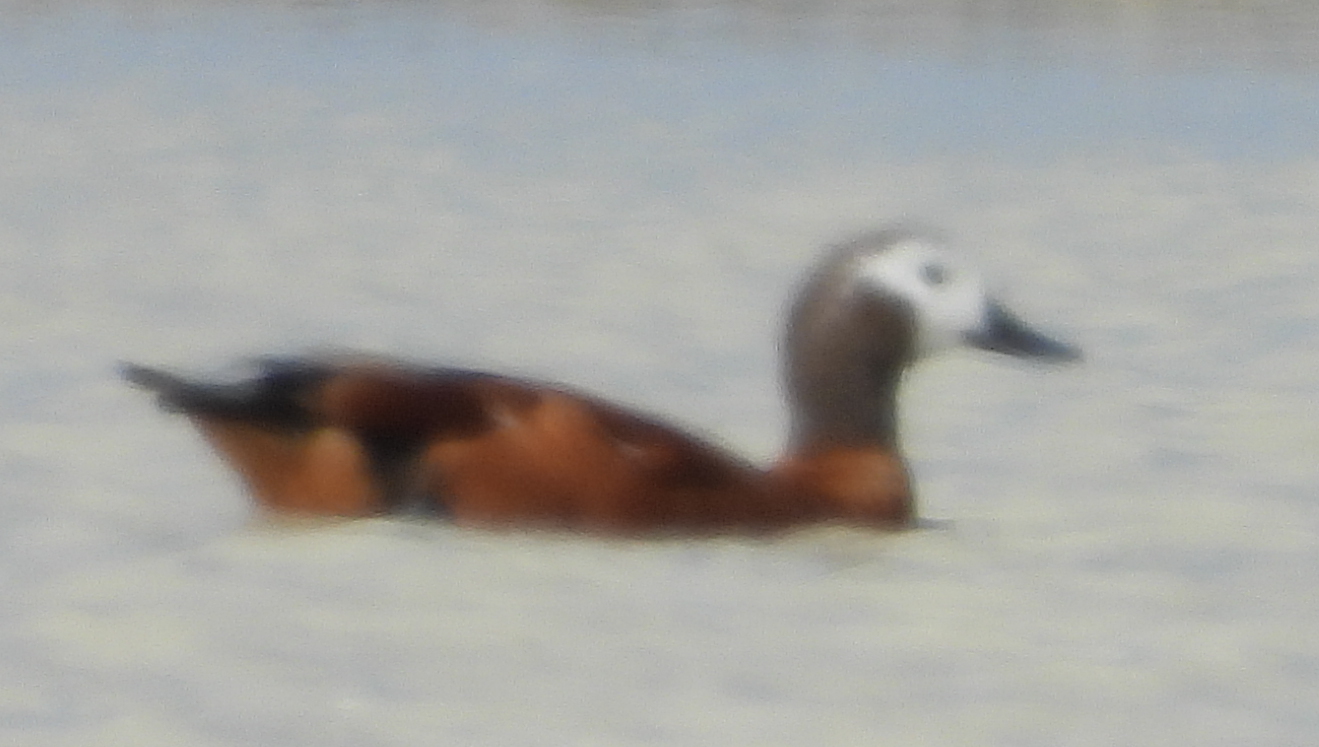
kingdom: Animalia
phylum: Chordata
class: Aves
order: Anseriformes
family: Anatidae
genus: Tadorna
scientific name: Tadorna cana
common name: South african shelduck
